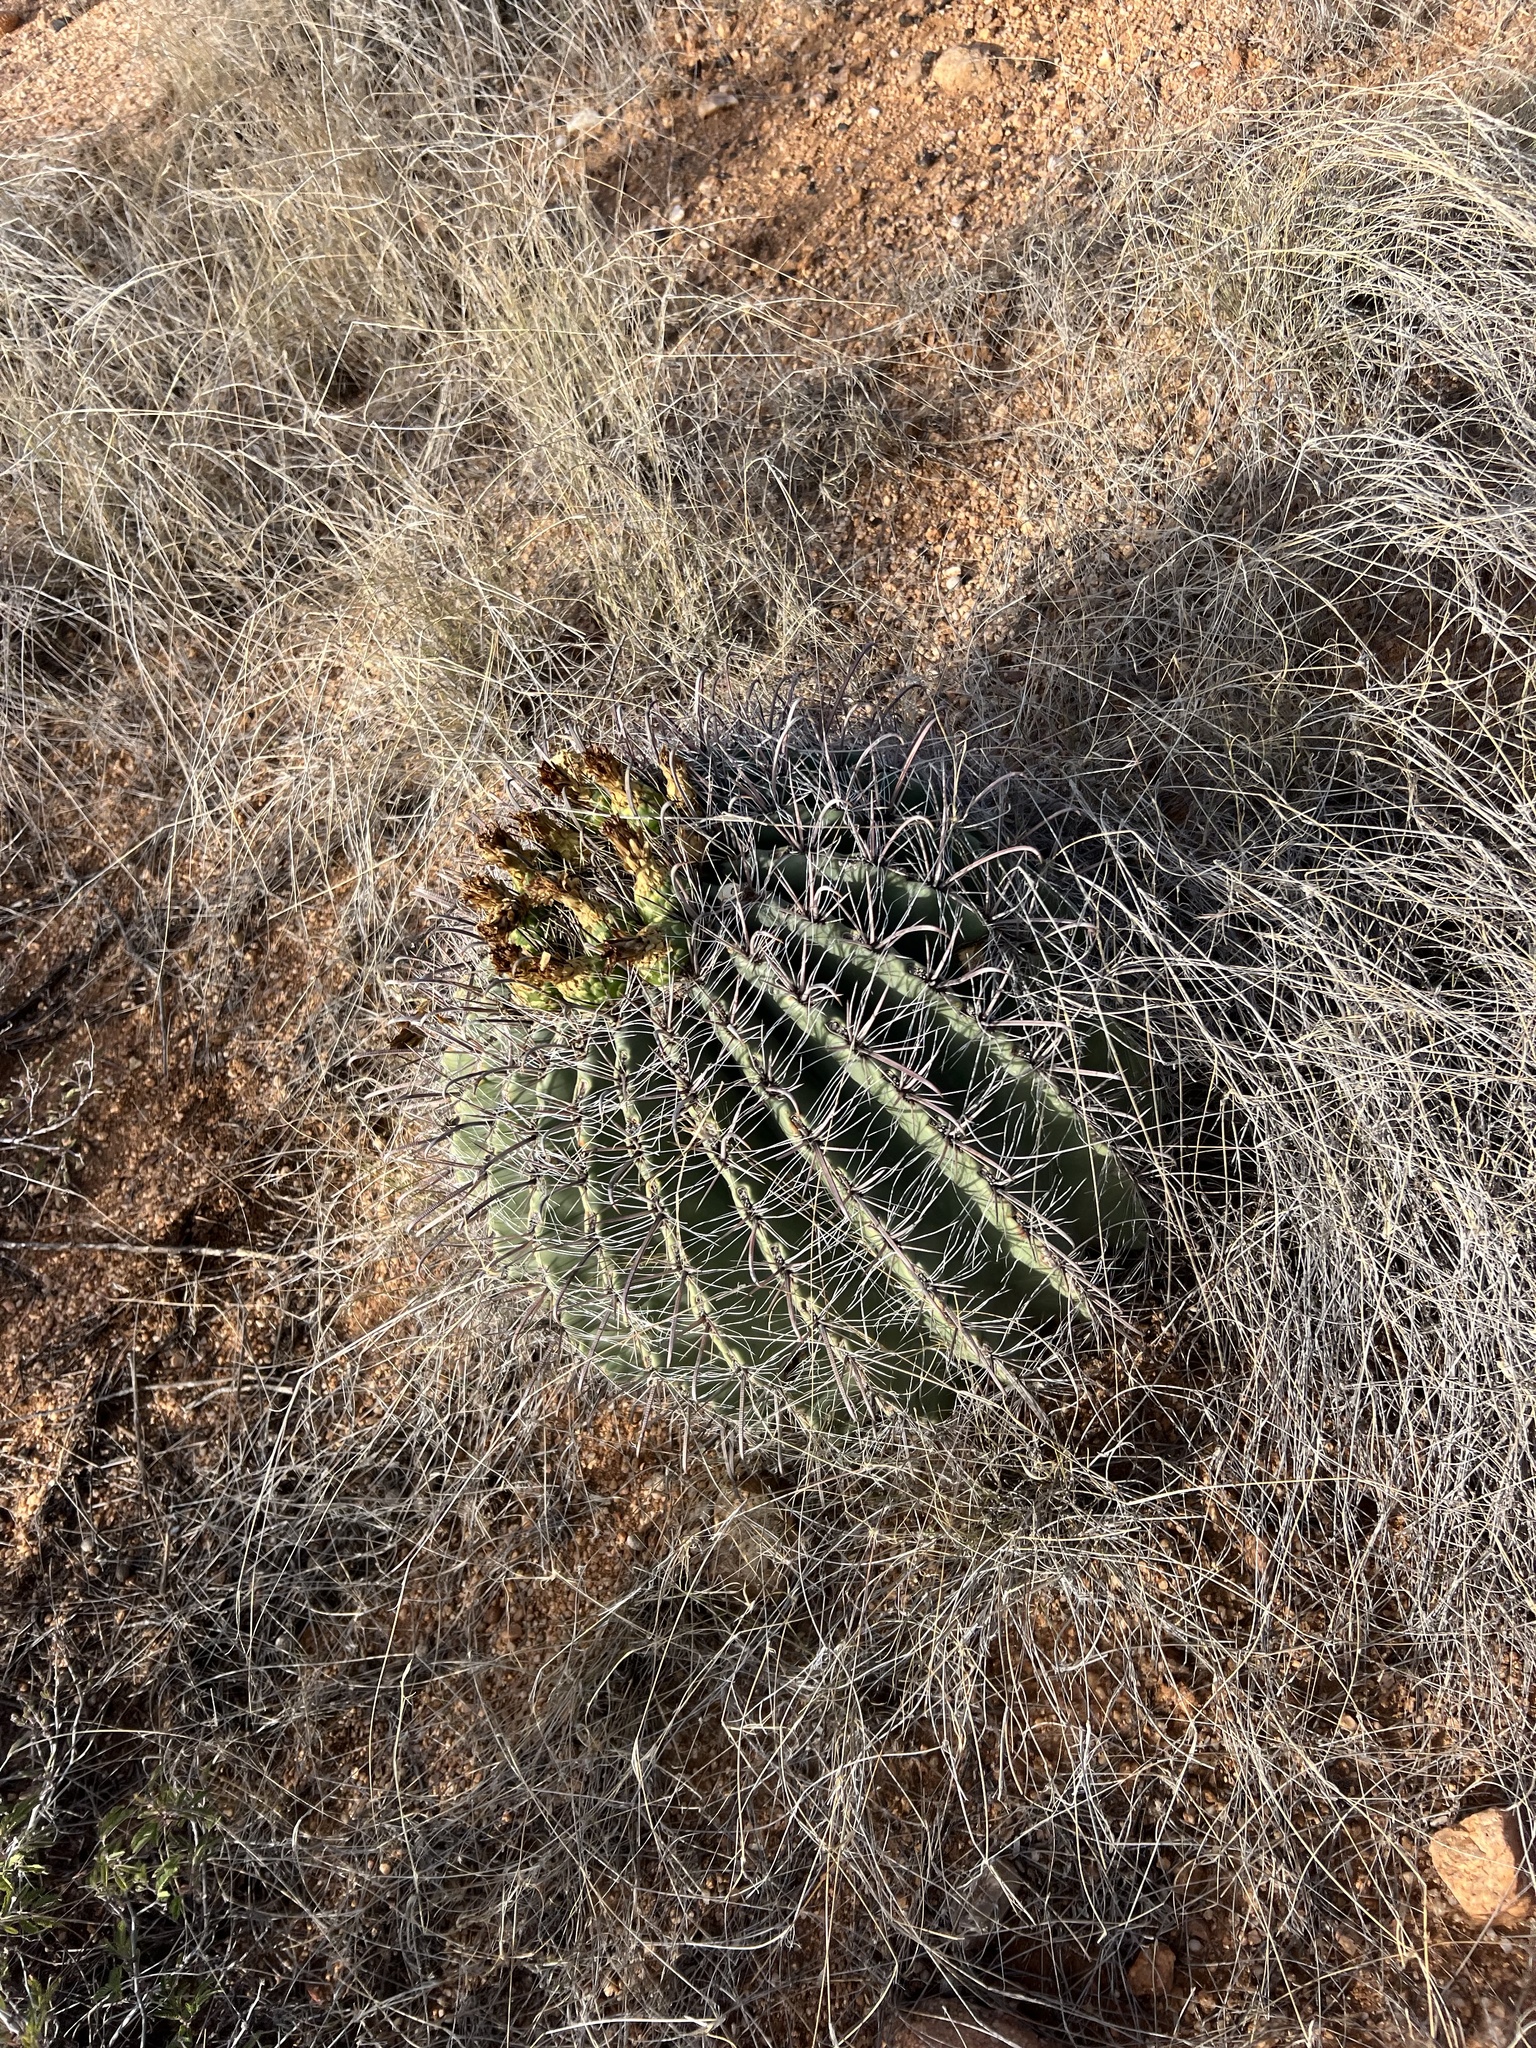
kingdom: Plantae
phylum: Tracheophyta
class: Magnoliopsida
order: Caryophyllales
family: Cactaceae
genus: Ferocactus
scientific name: Ferocactus wislizeni
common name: Candy barrel cactus
